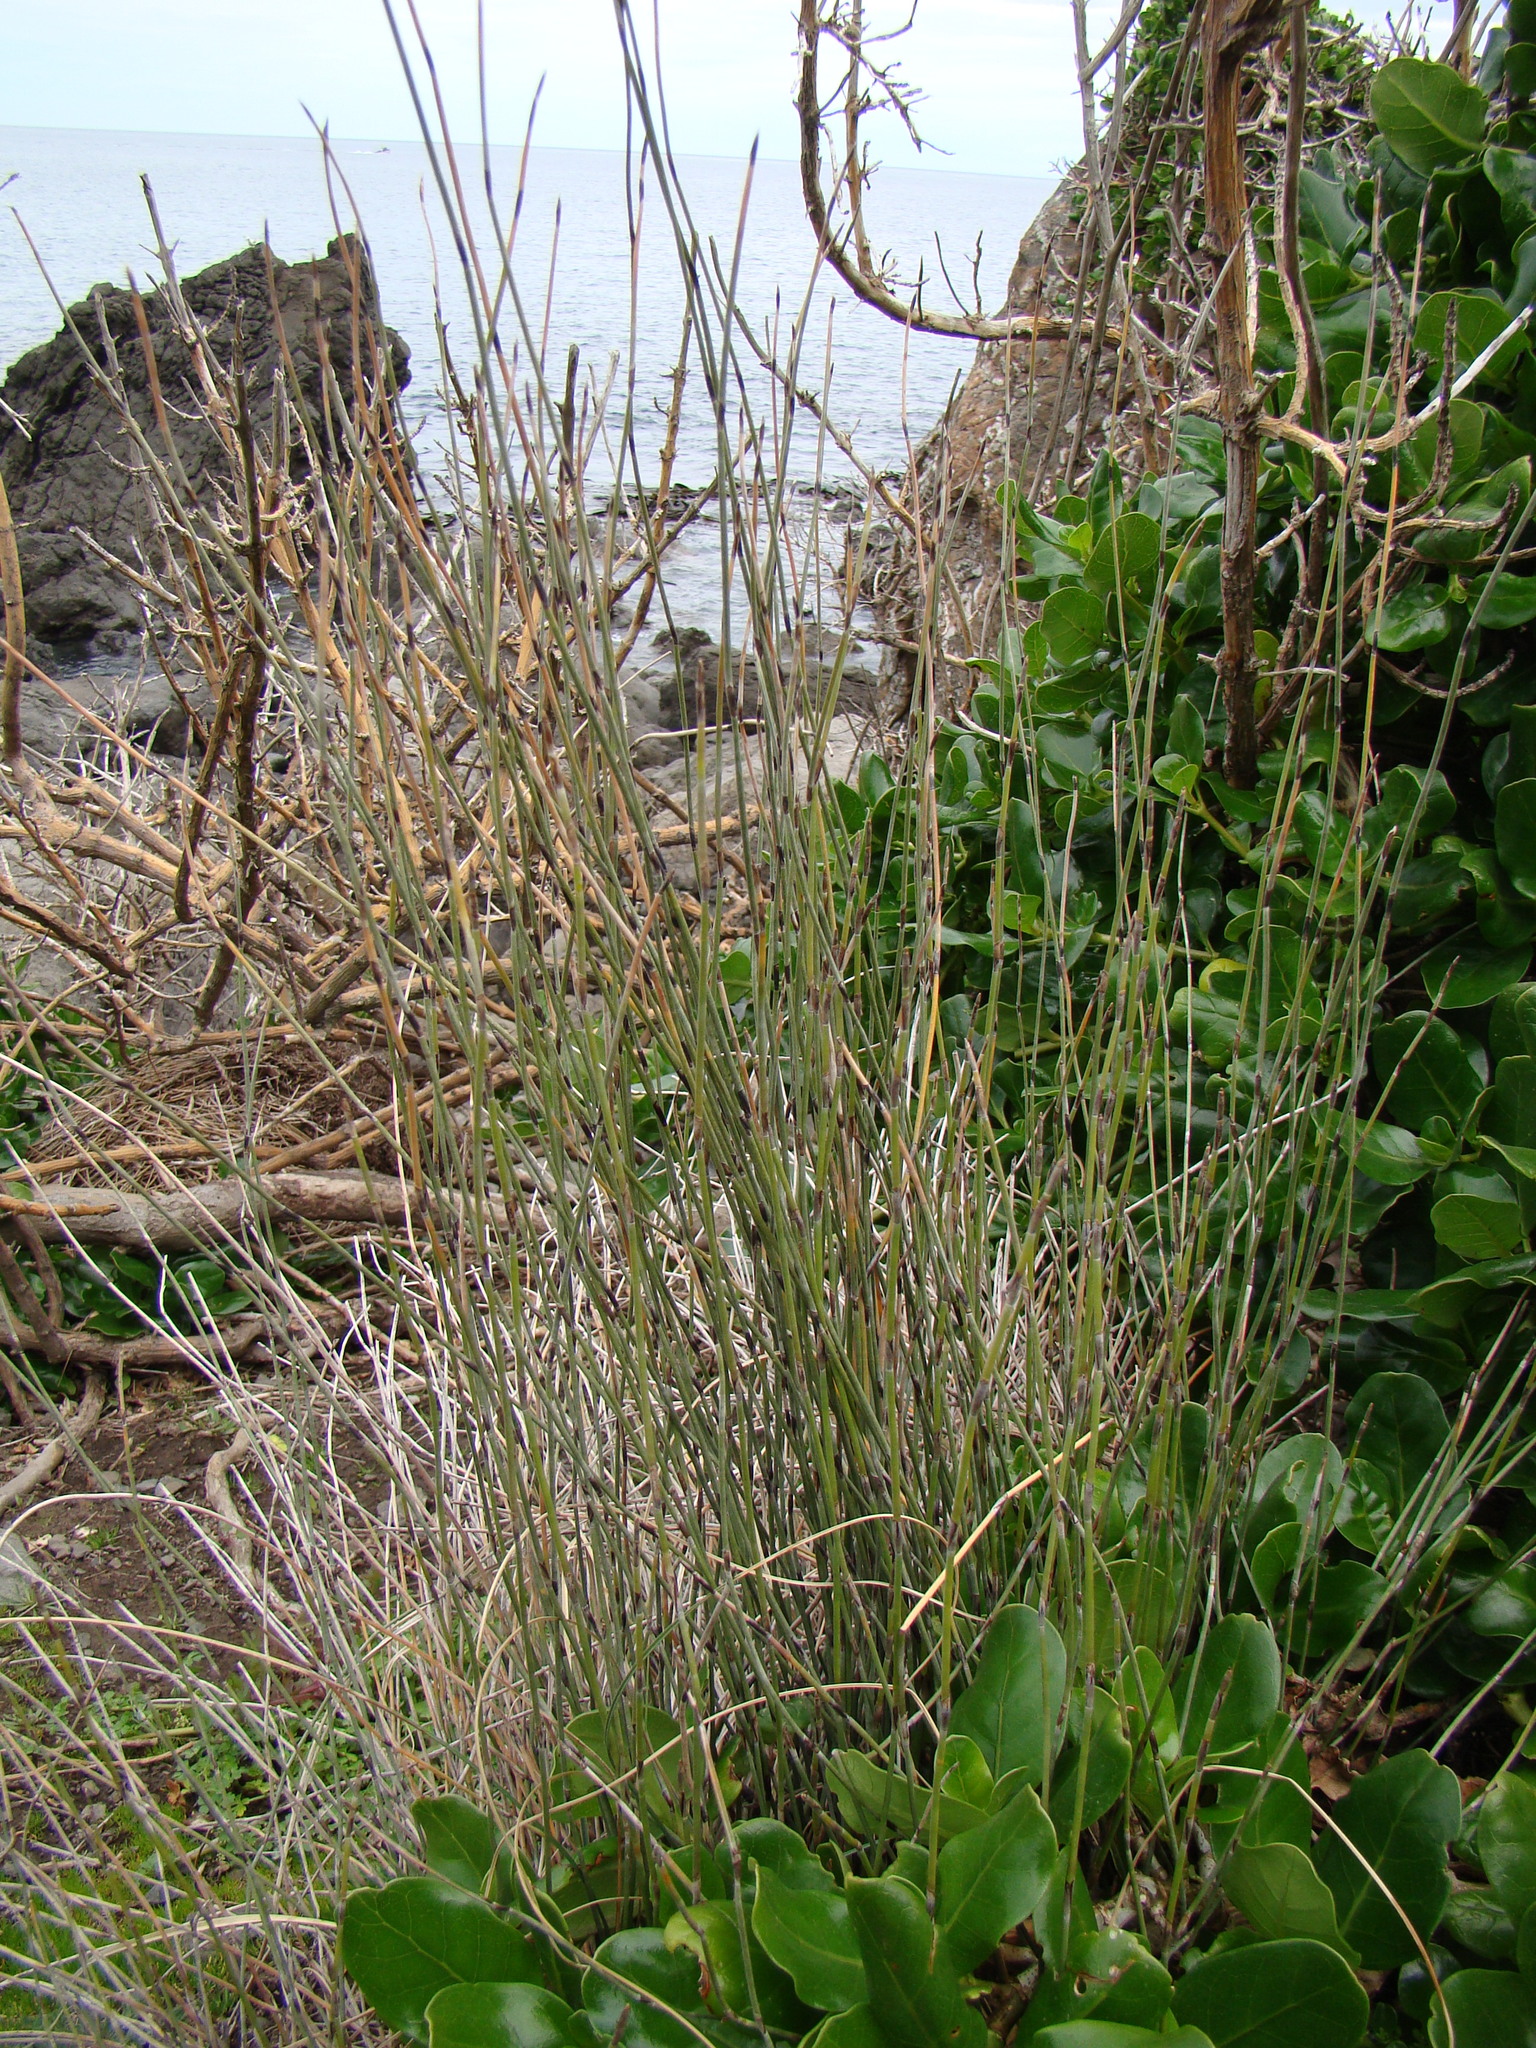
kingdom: Plantae
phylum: Tracheophyta
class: Liliopsida
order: Poales
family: Restionaceae
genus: Apodasmia
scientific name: Apodasmia similis
